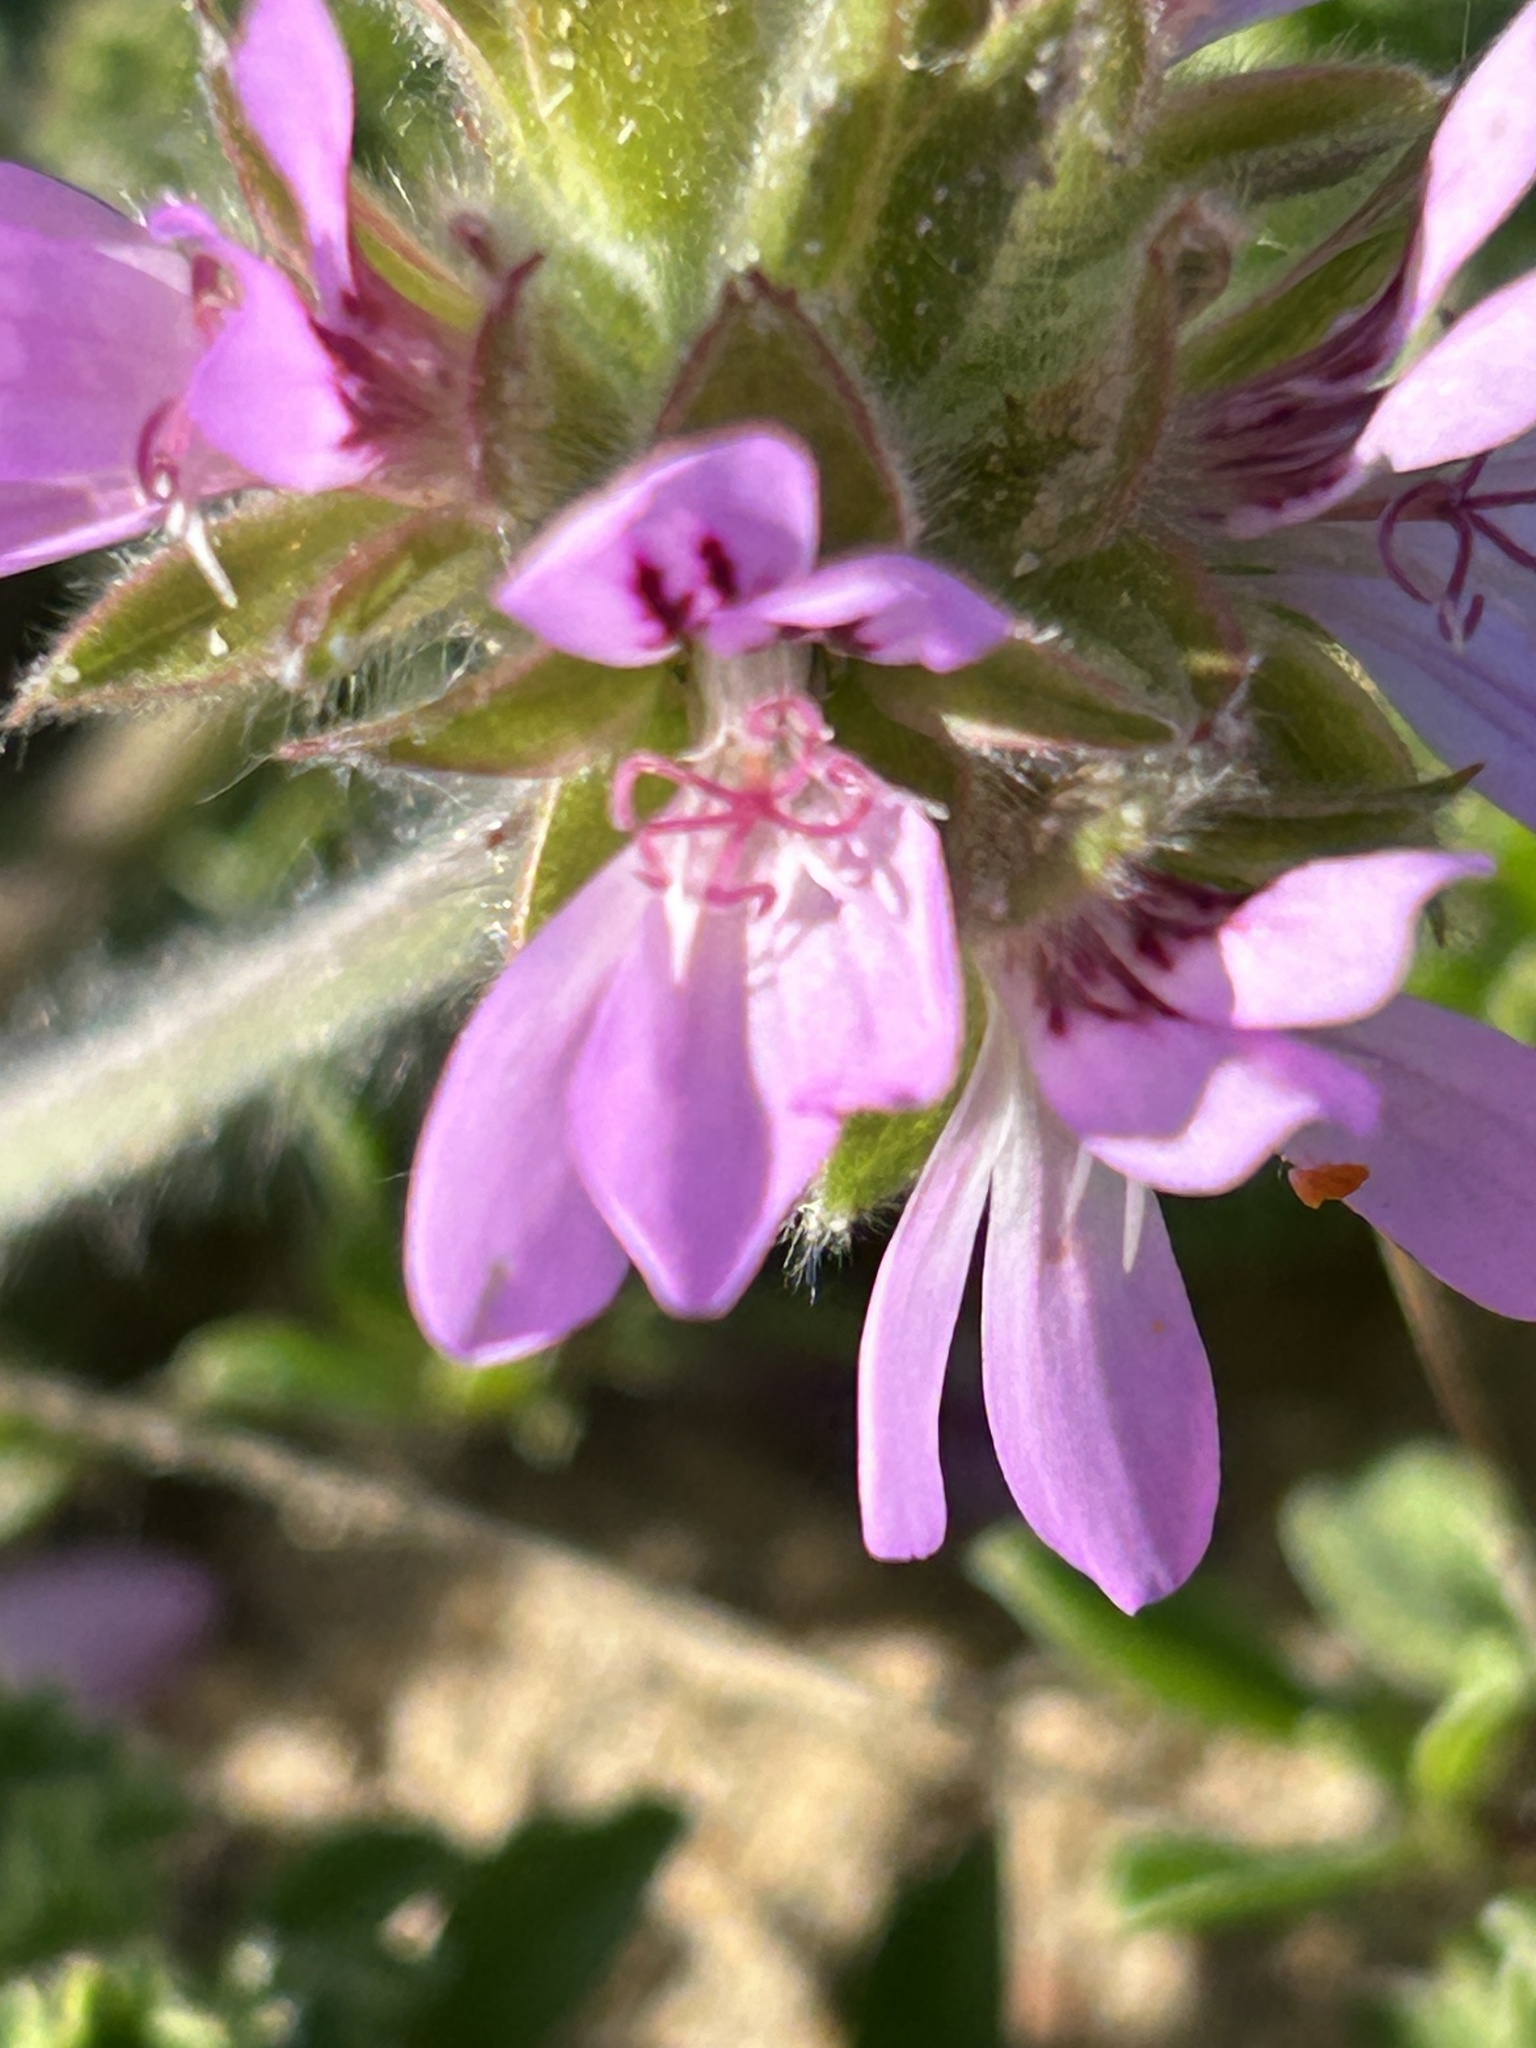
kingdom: Plantae
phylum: Tracheophyta
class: Magnoliopsida
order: Geraniales
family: Geraniaceae
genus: Pelargonium
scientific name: Pelargonium capitatum
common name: Rose scented geranium
